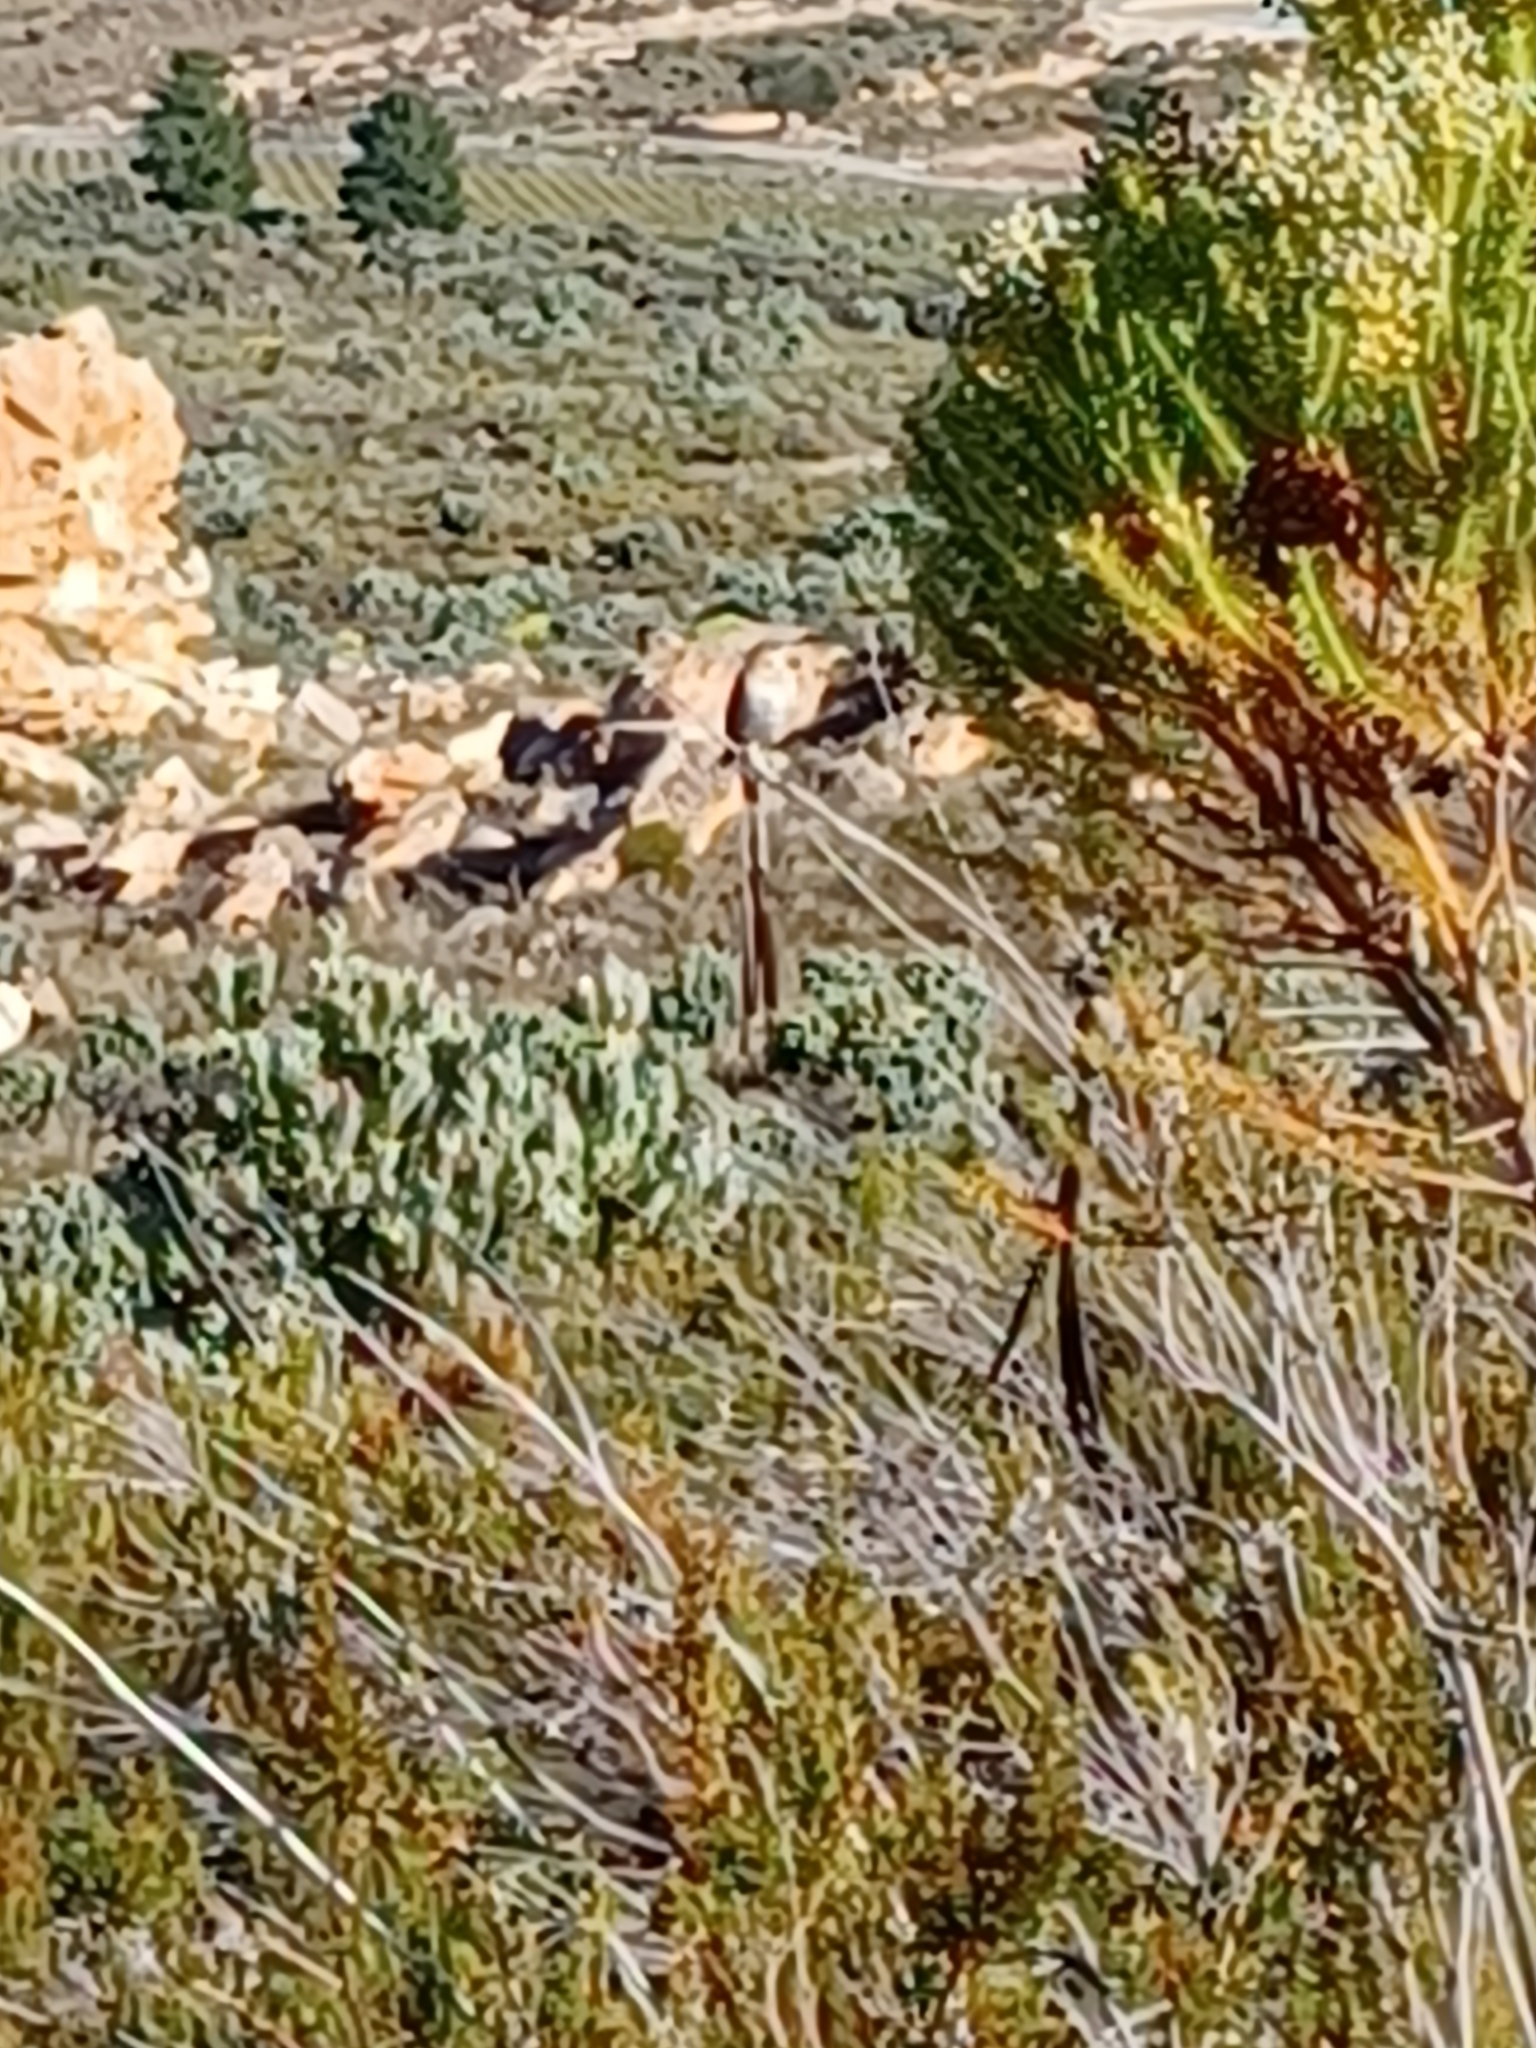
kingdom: Animalia
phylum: Chordata
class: Aves
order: Passeriformes
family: Promeropidae
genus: Promerops
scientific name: Promerops cafer
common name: Cape sugarbird
